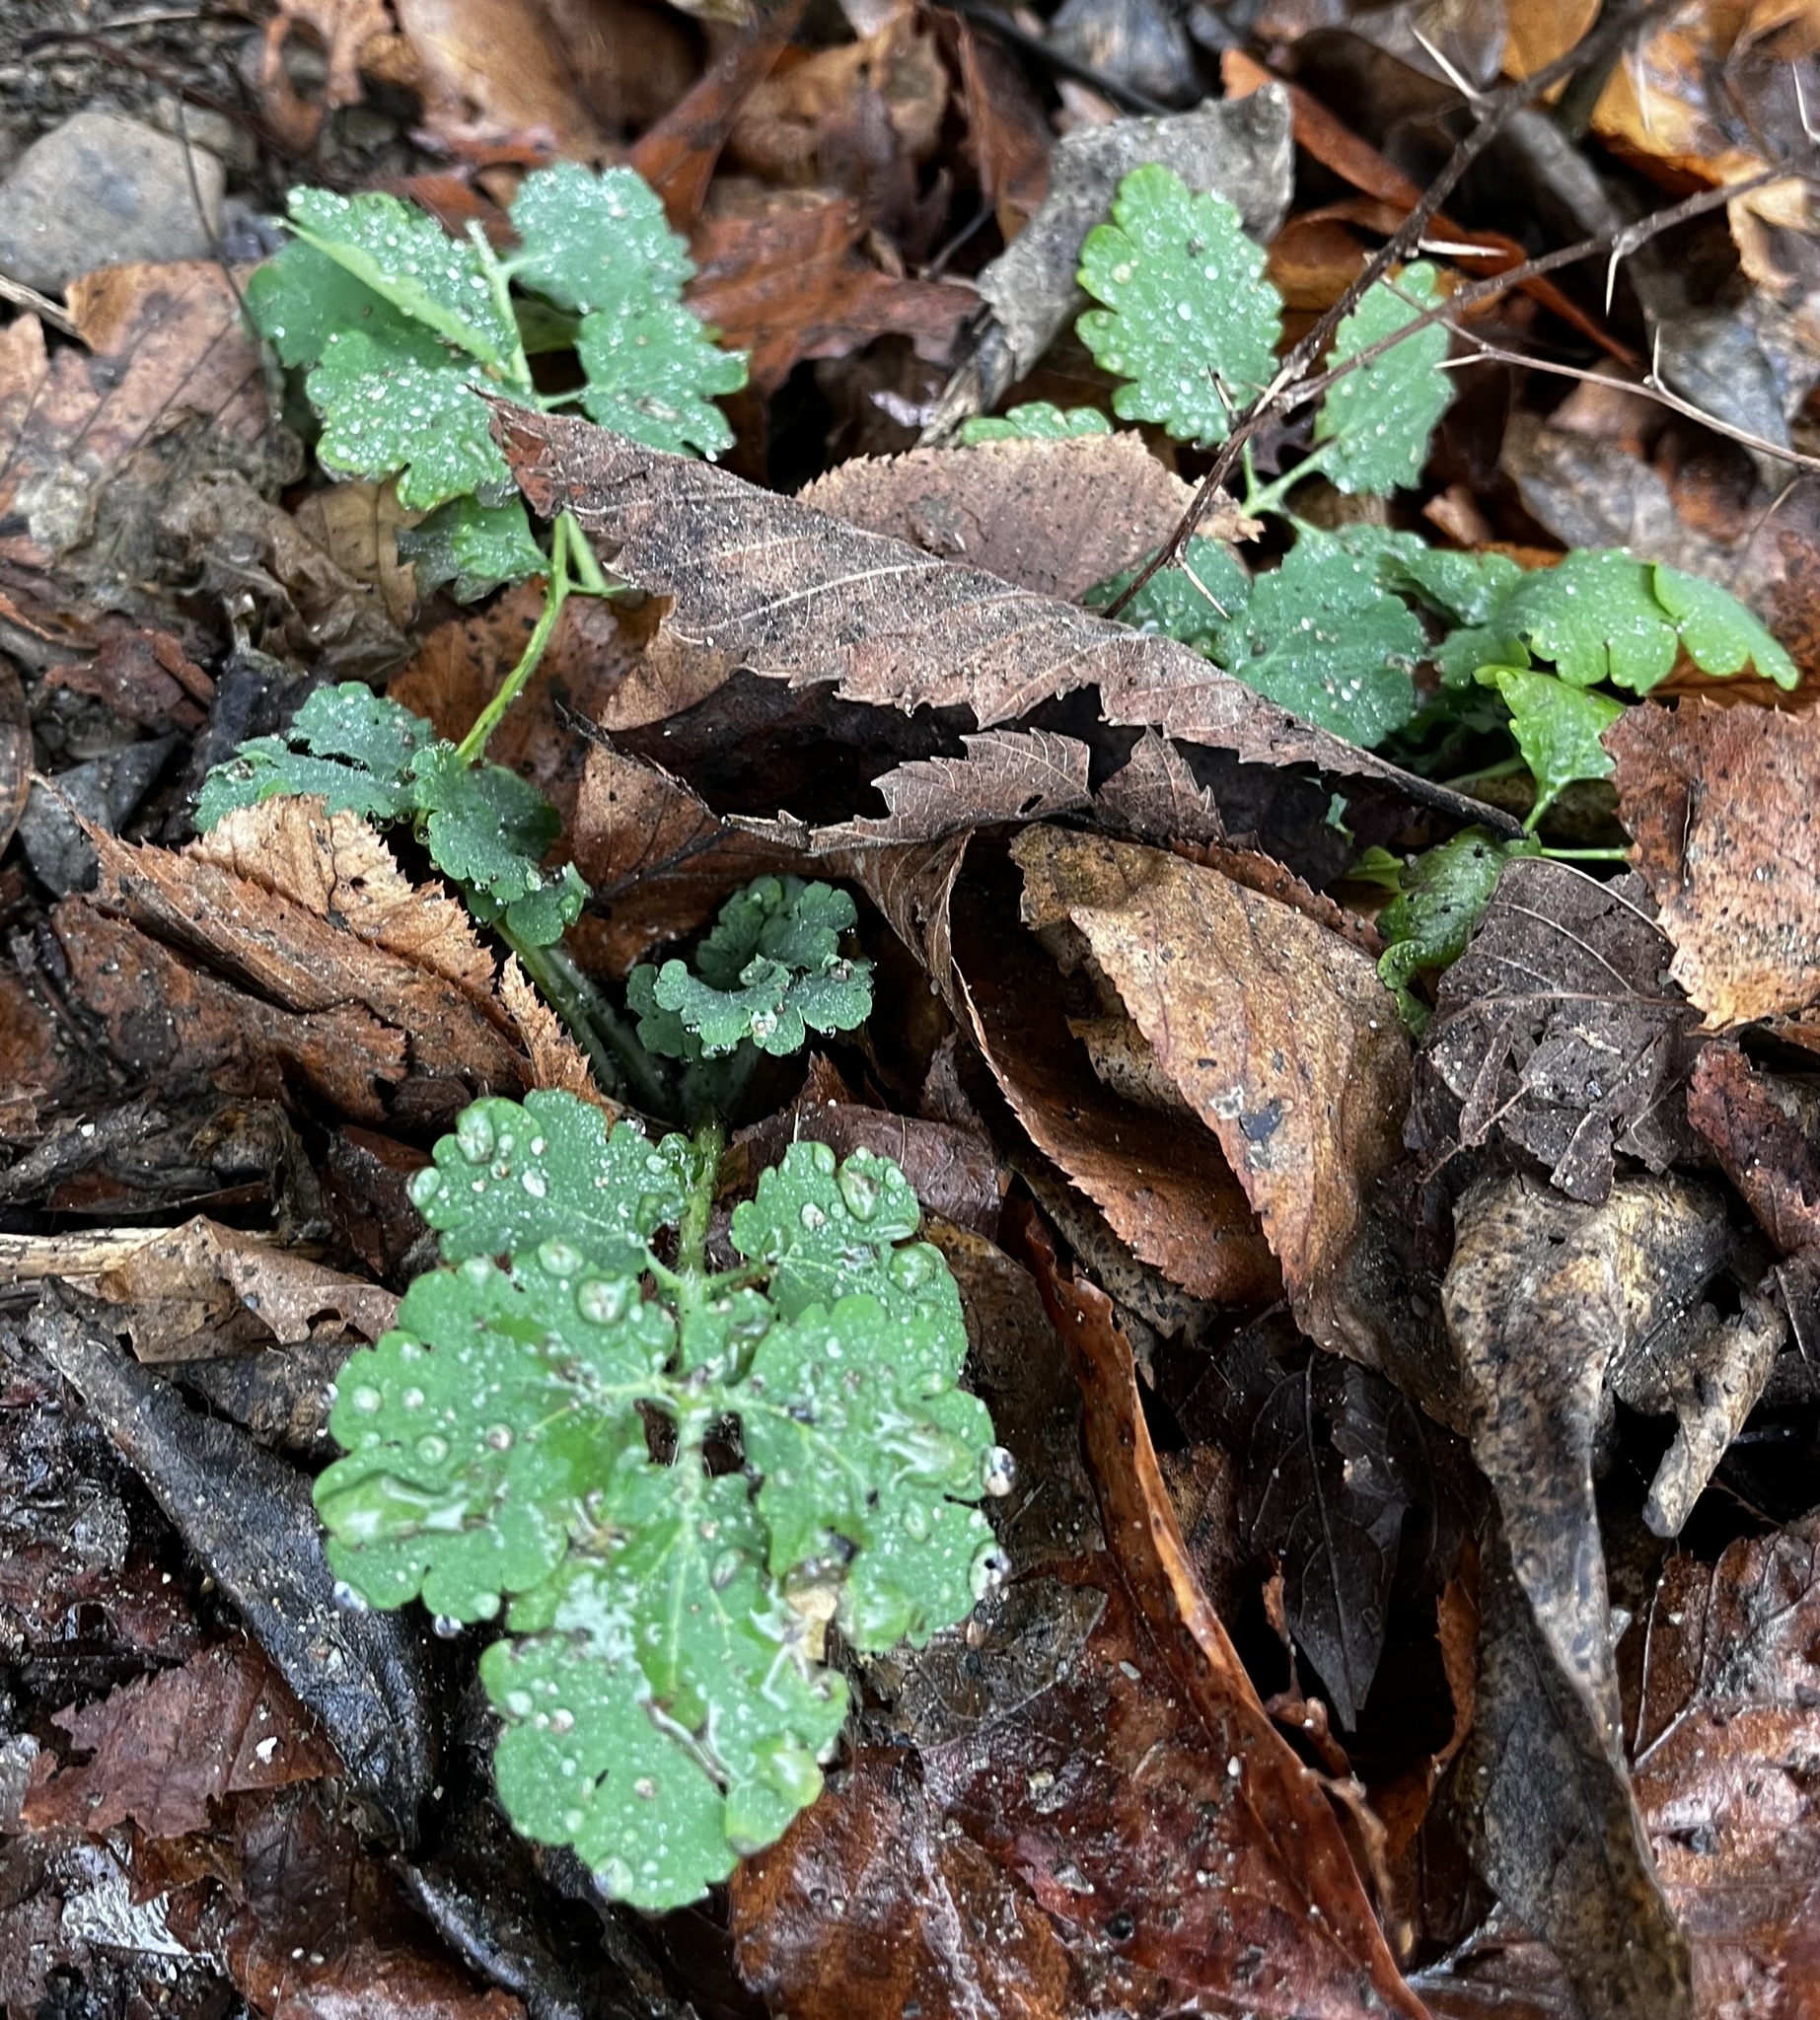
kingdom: Plantae
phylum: Tracheophyta
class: Magnoliopsida
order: Ranunculales
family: Papaveraceae
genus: Chelidonium
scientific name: Chelidonium majus
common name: Greater celandine
